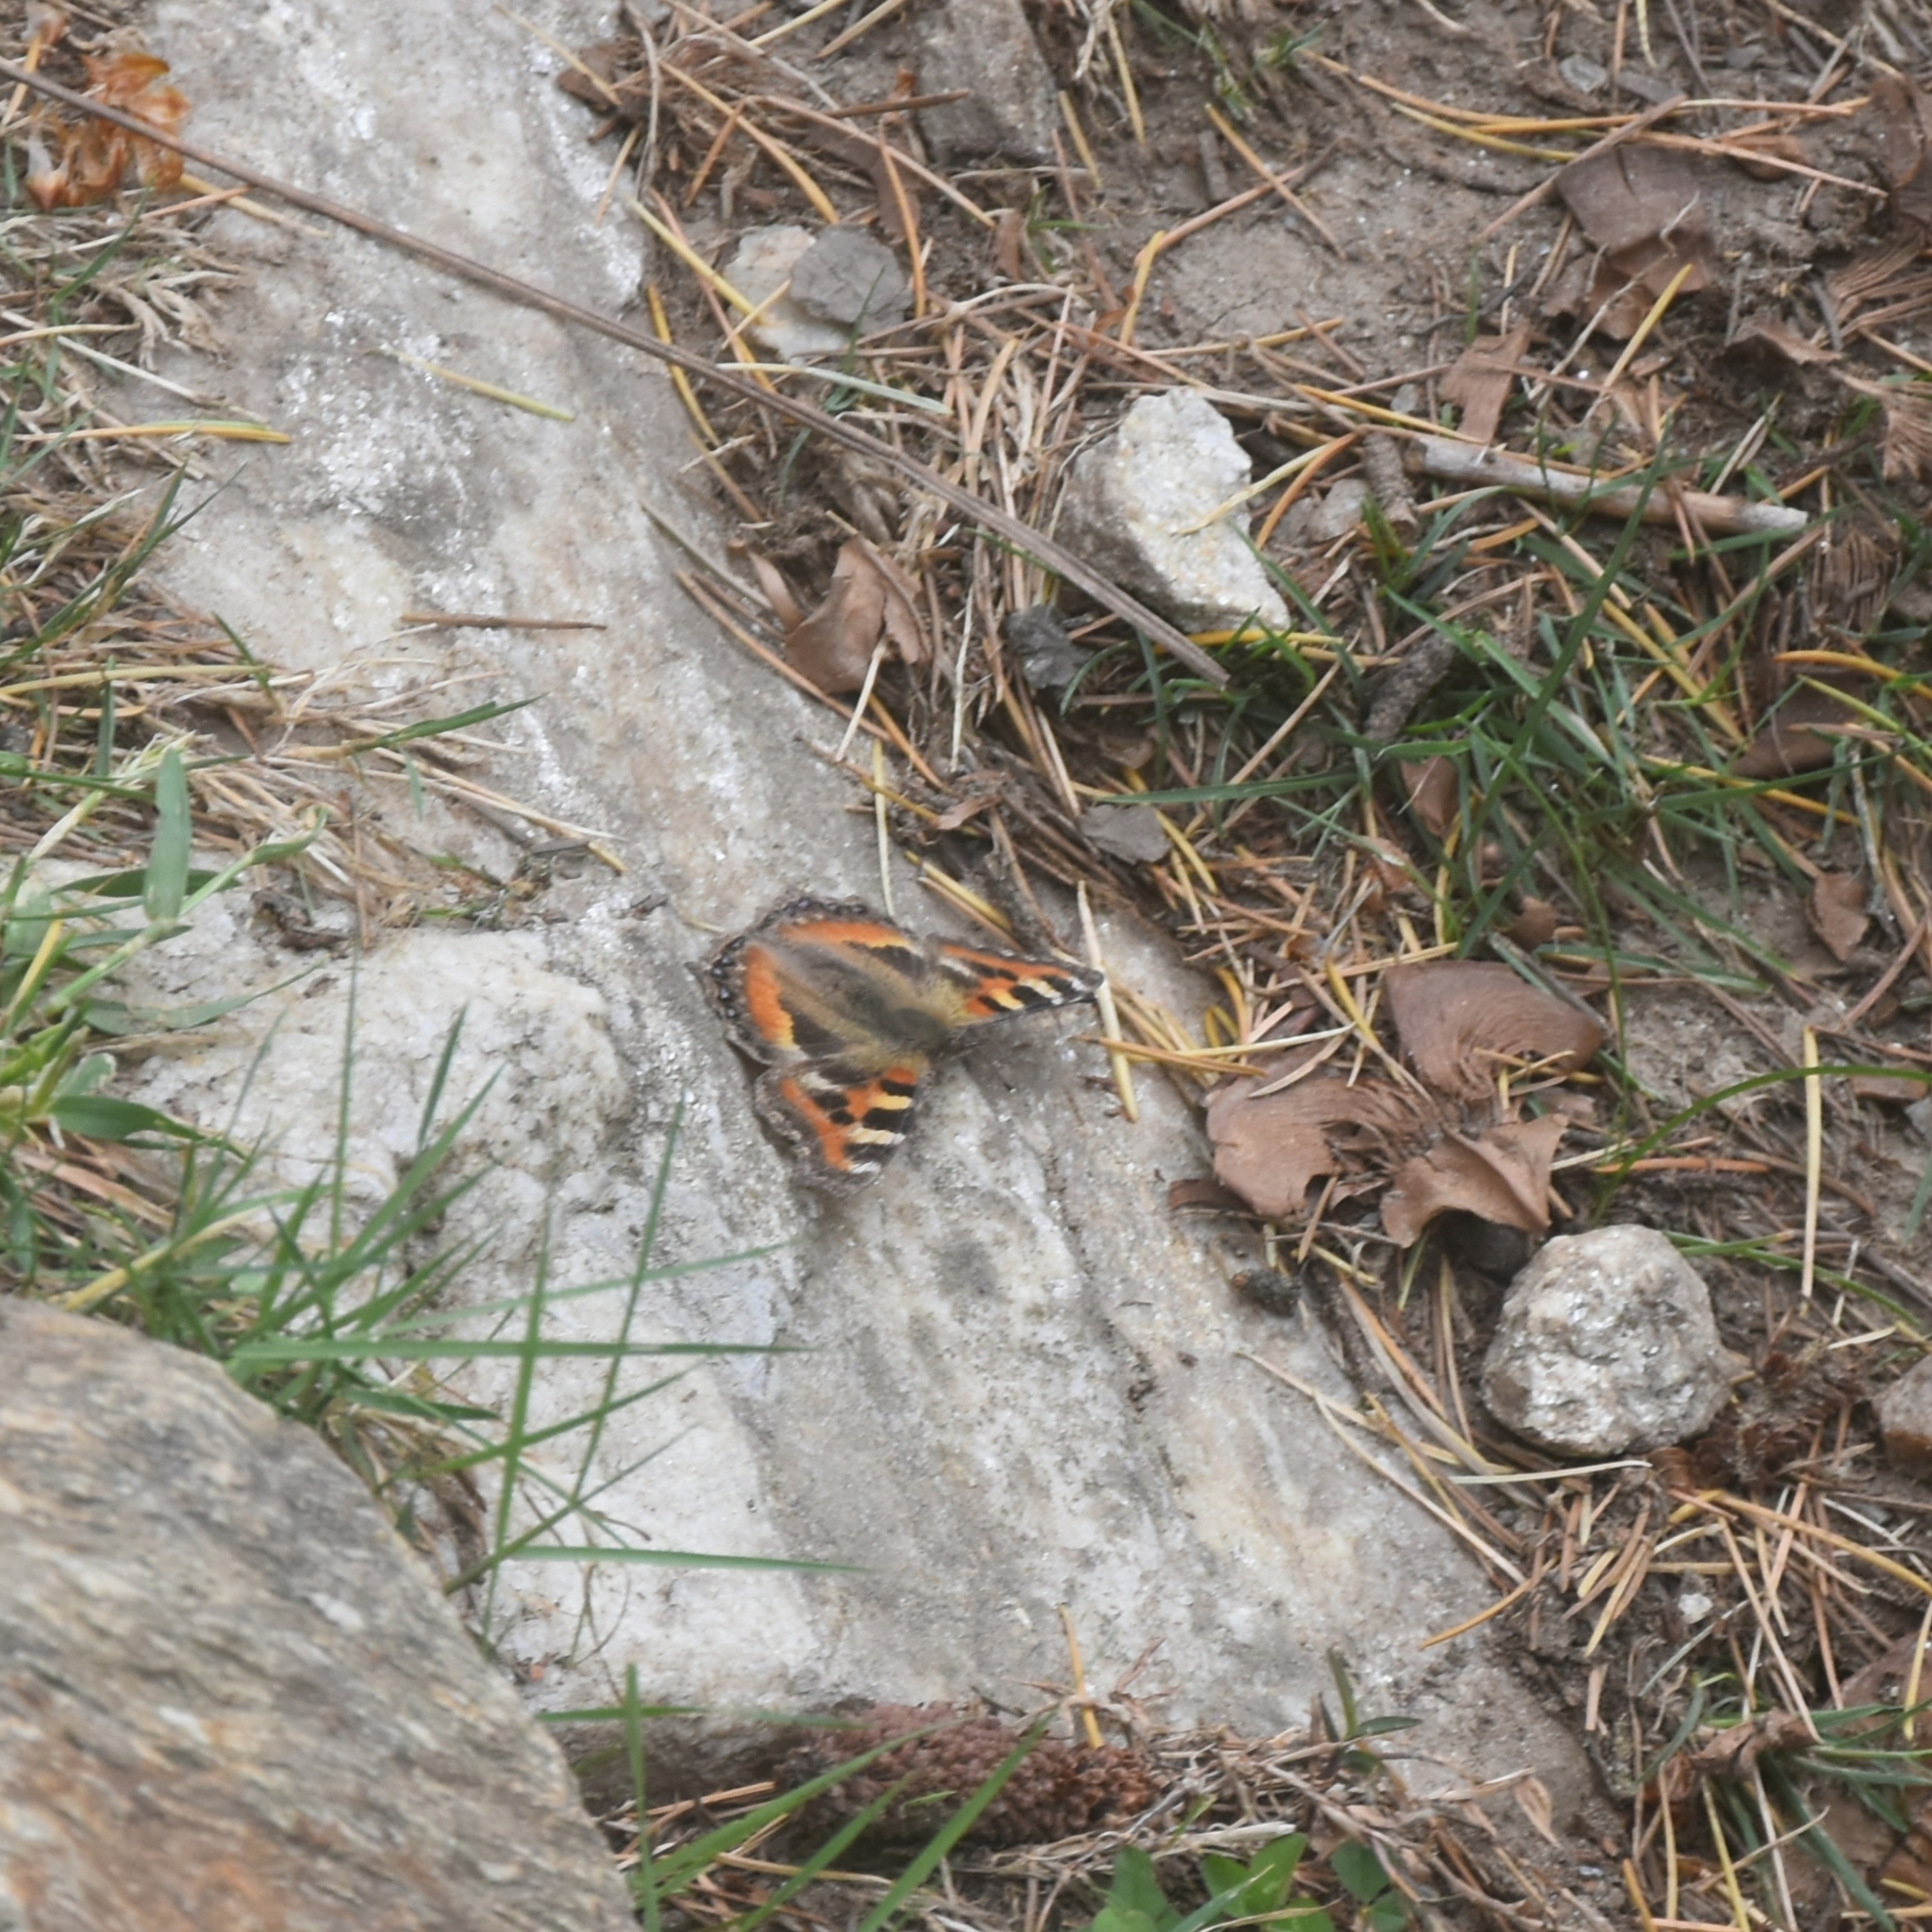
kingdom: Animalia
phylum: Arthropoda
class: Insecta
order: Lepidoptera
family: Nymphalidae
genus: Aglais
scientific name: Aglais caschmirensis
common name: Indian tortoiseshell
